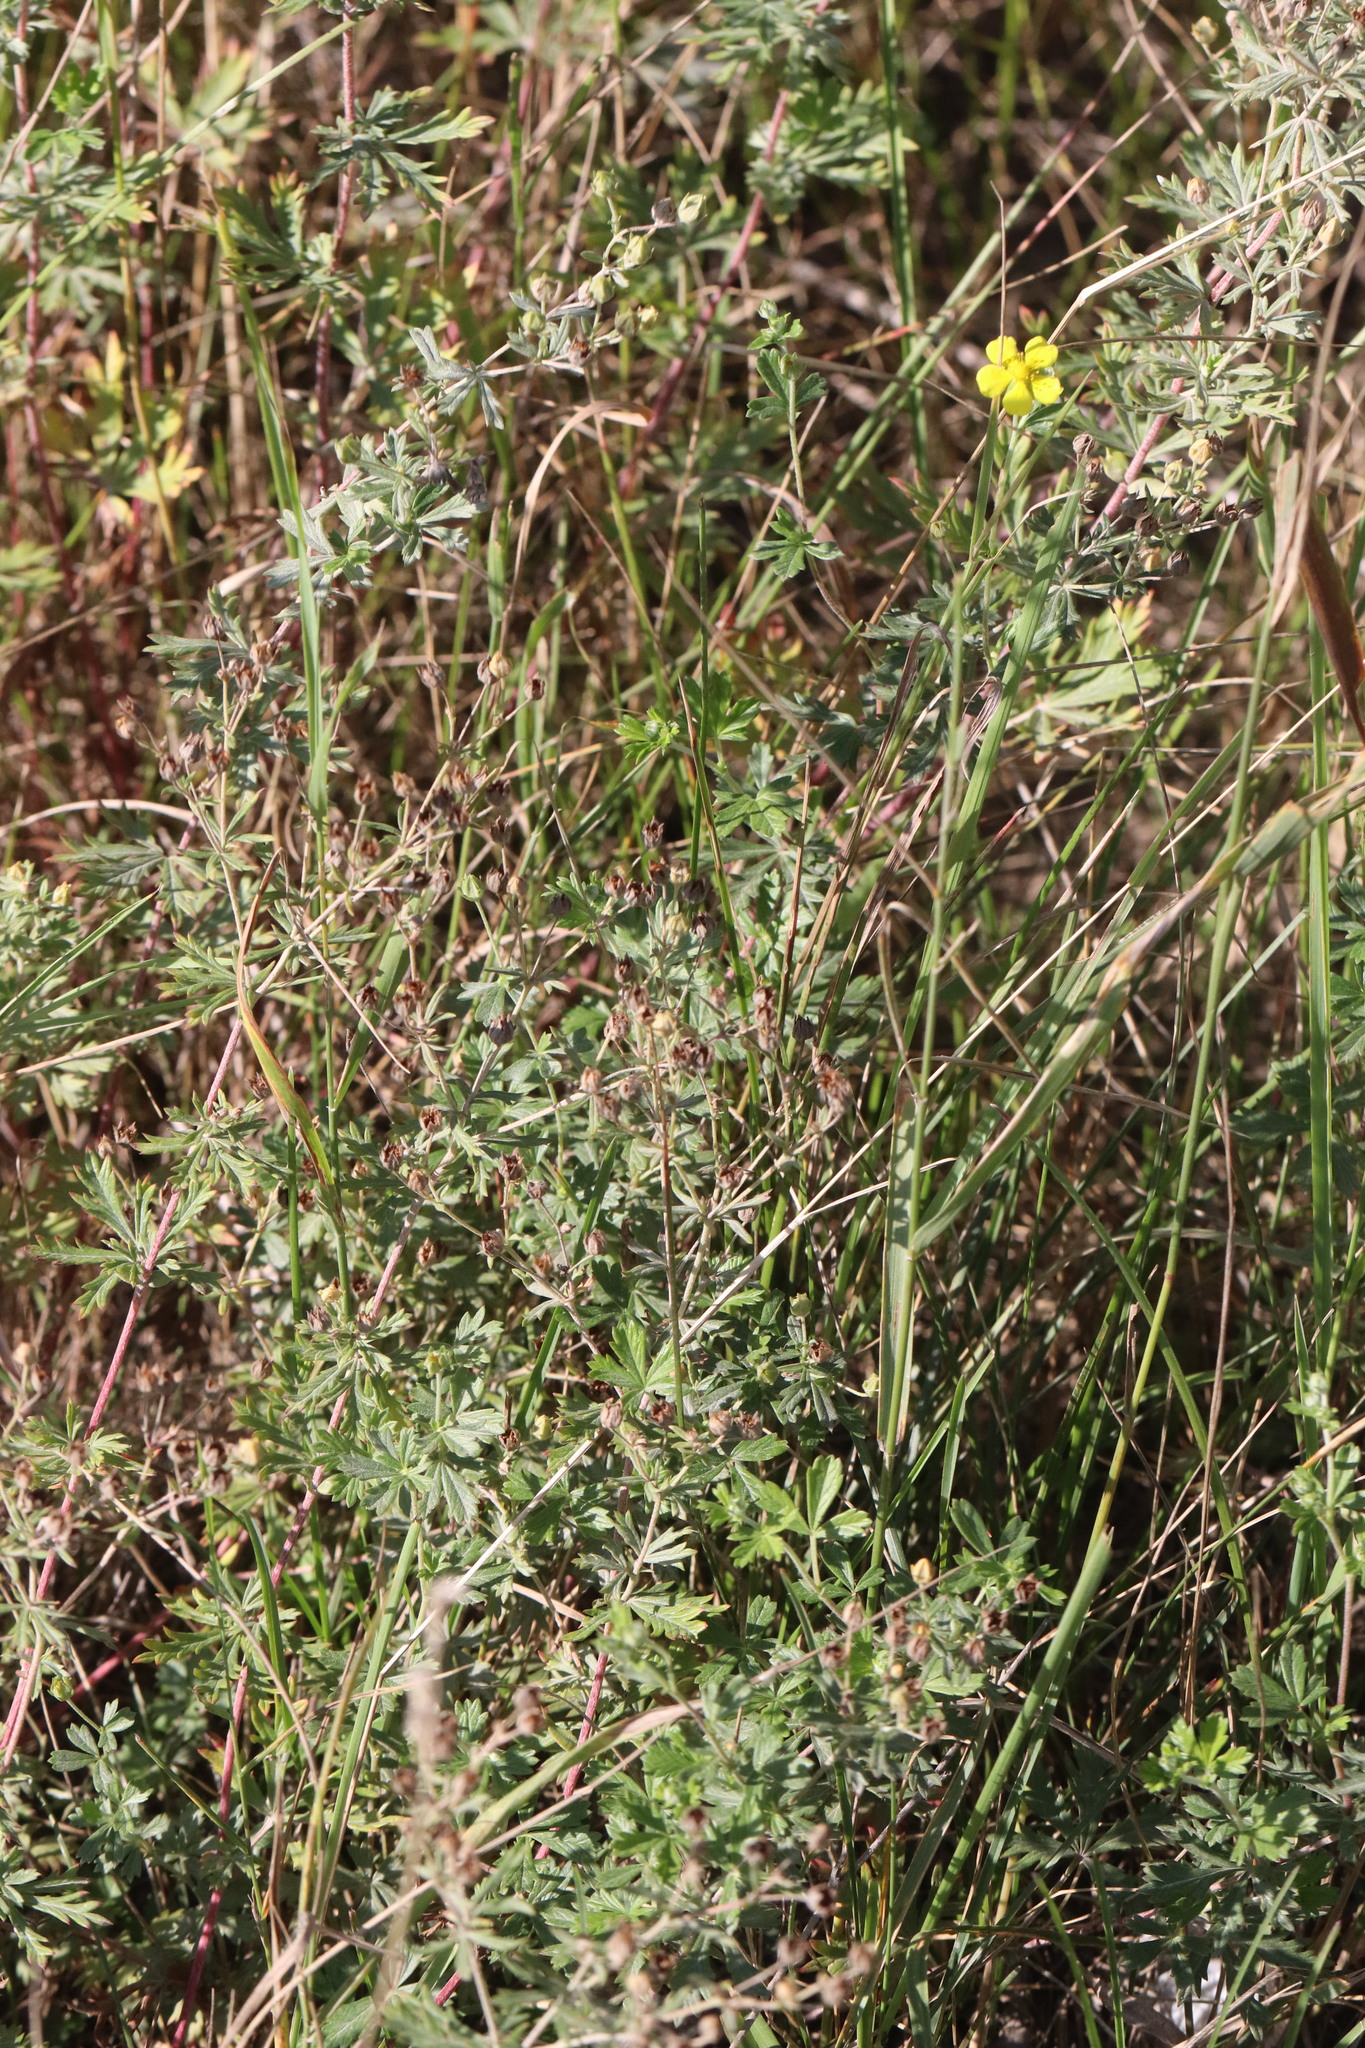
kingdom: Plantae
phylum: Tracheophyta
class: Magnoliopsida
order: Rosales
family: Rosaceae
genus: Potentilla
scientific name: Potentilla argentea
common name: Hoary cinquefoil
